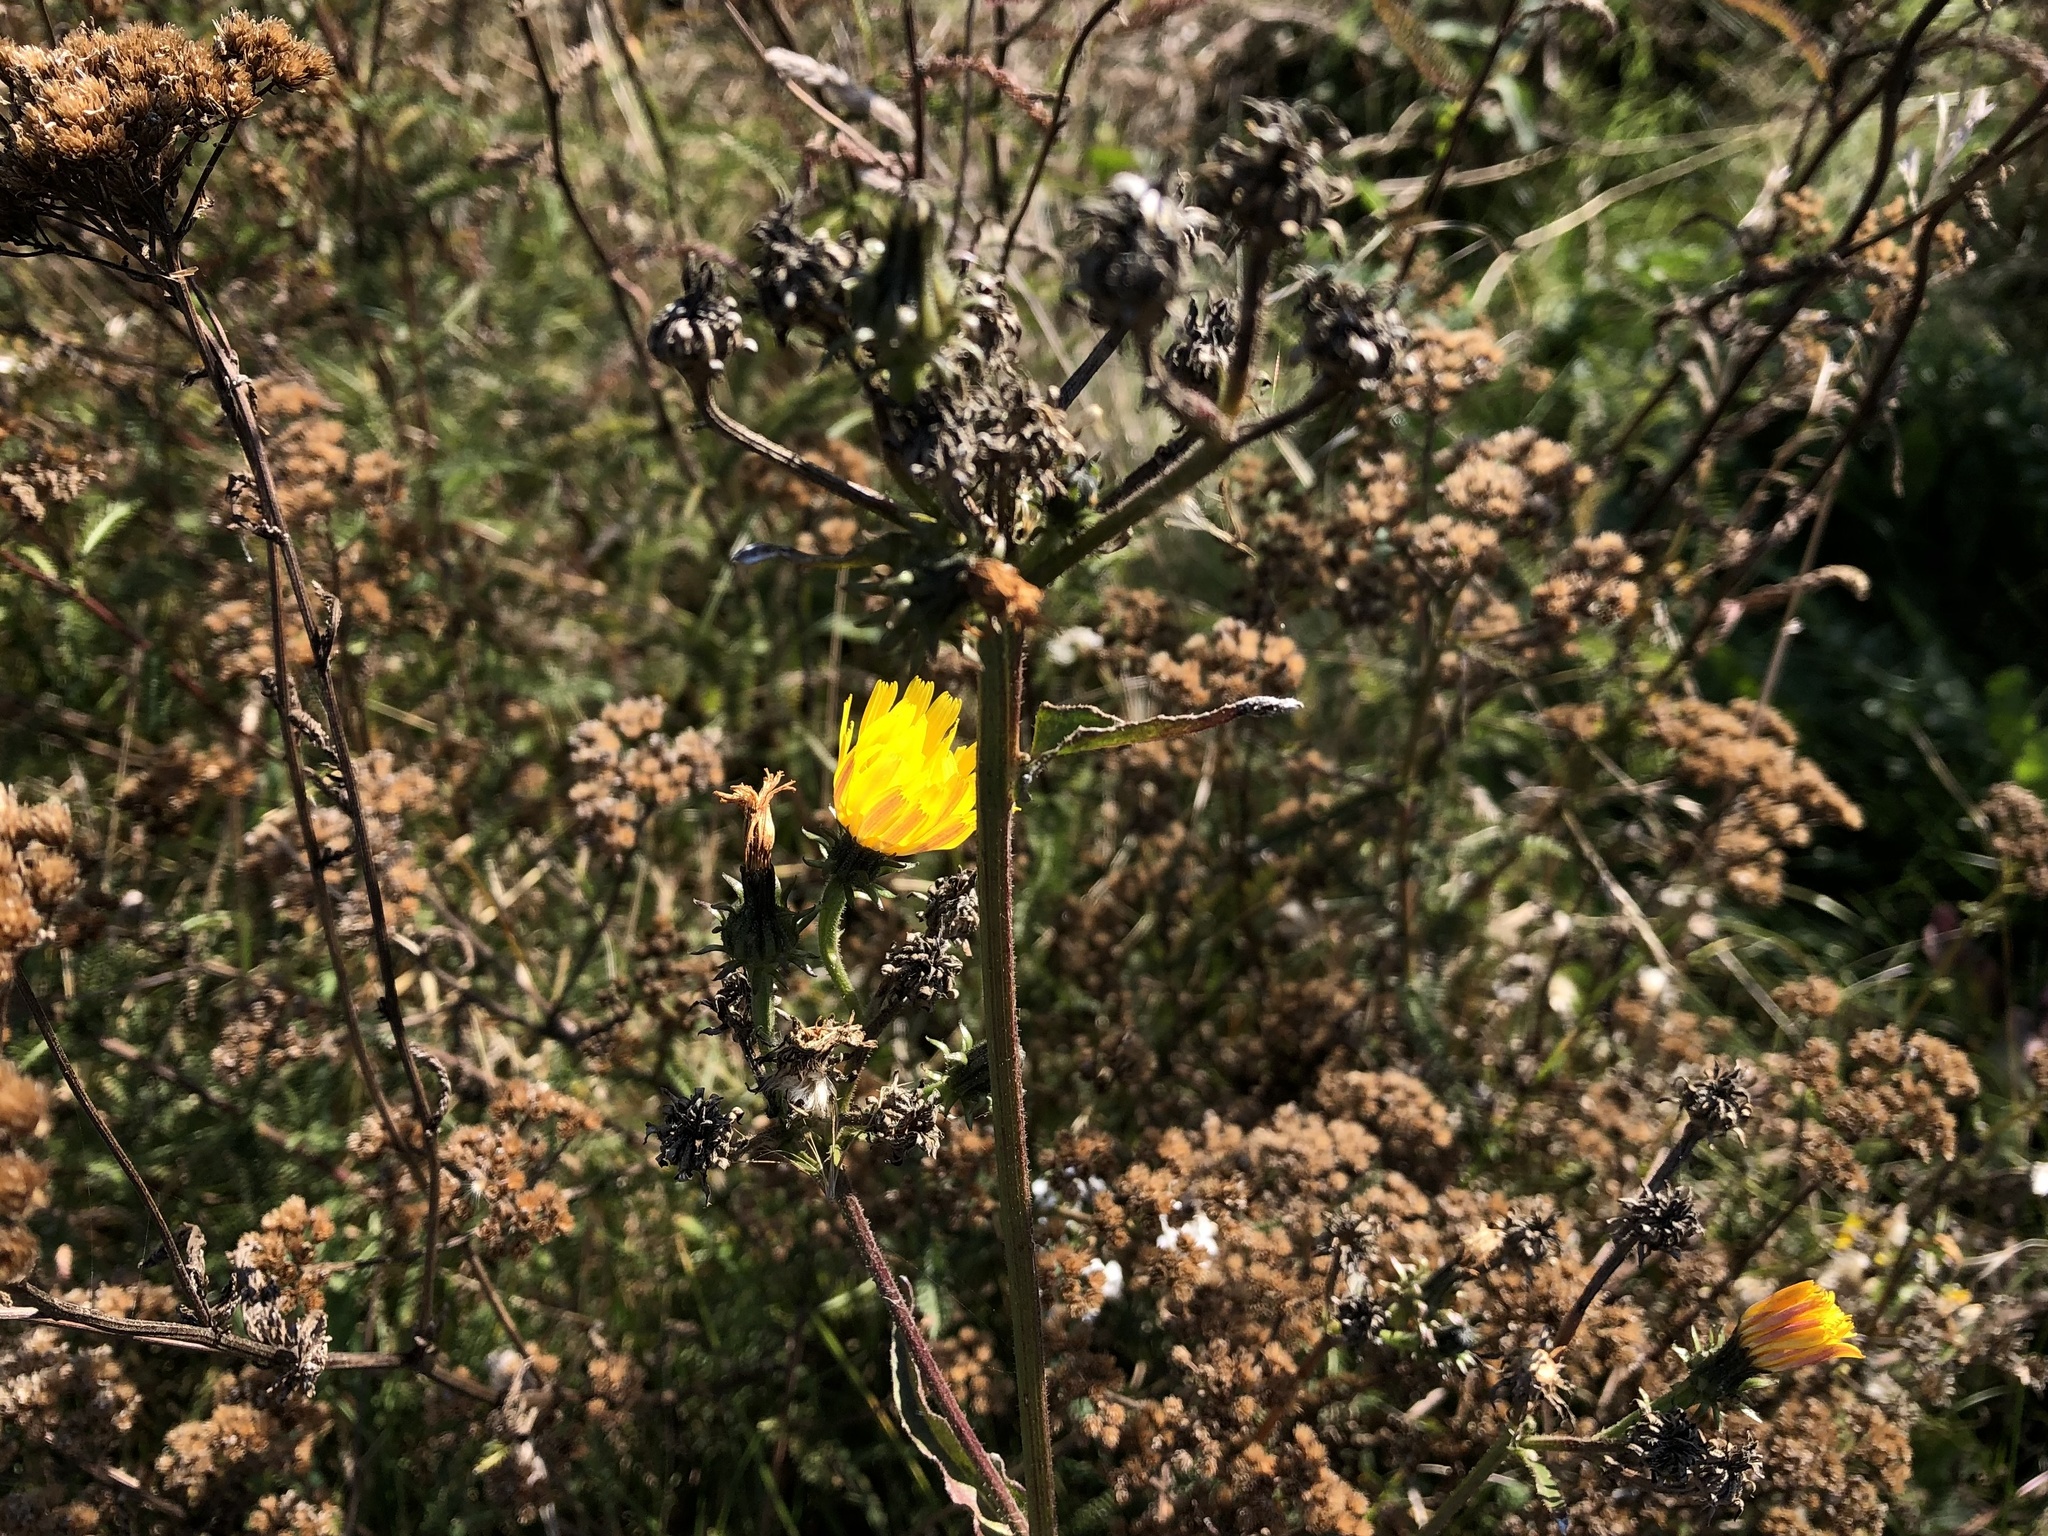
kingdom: Plantae
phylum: Tracheophyta
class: Magnoliopsida
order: Asterales
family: Asteraceae
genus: Picris
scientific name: Picris hieracioides
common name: Hawkweed oxtongue
